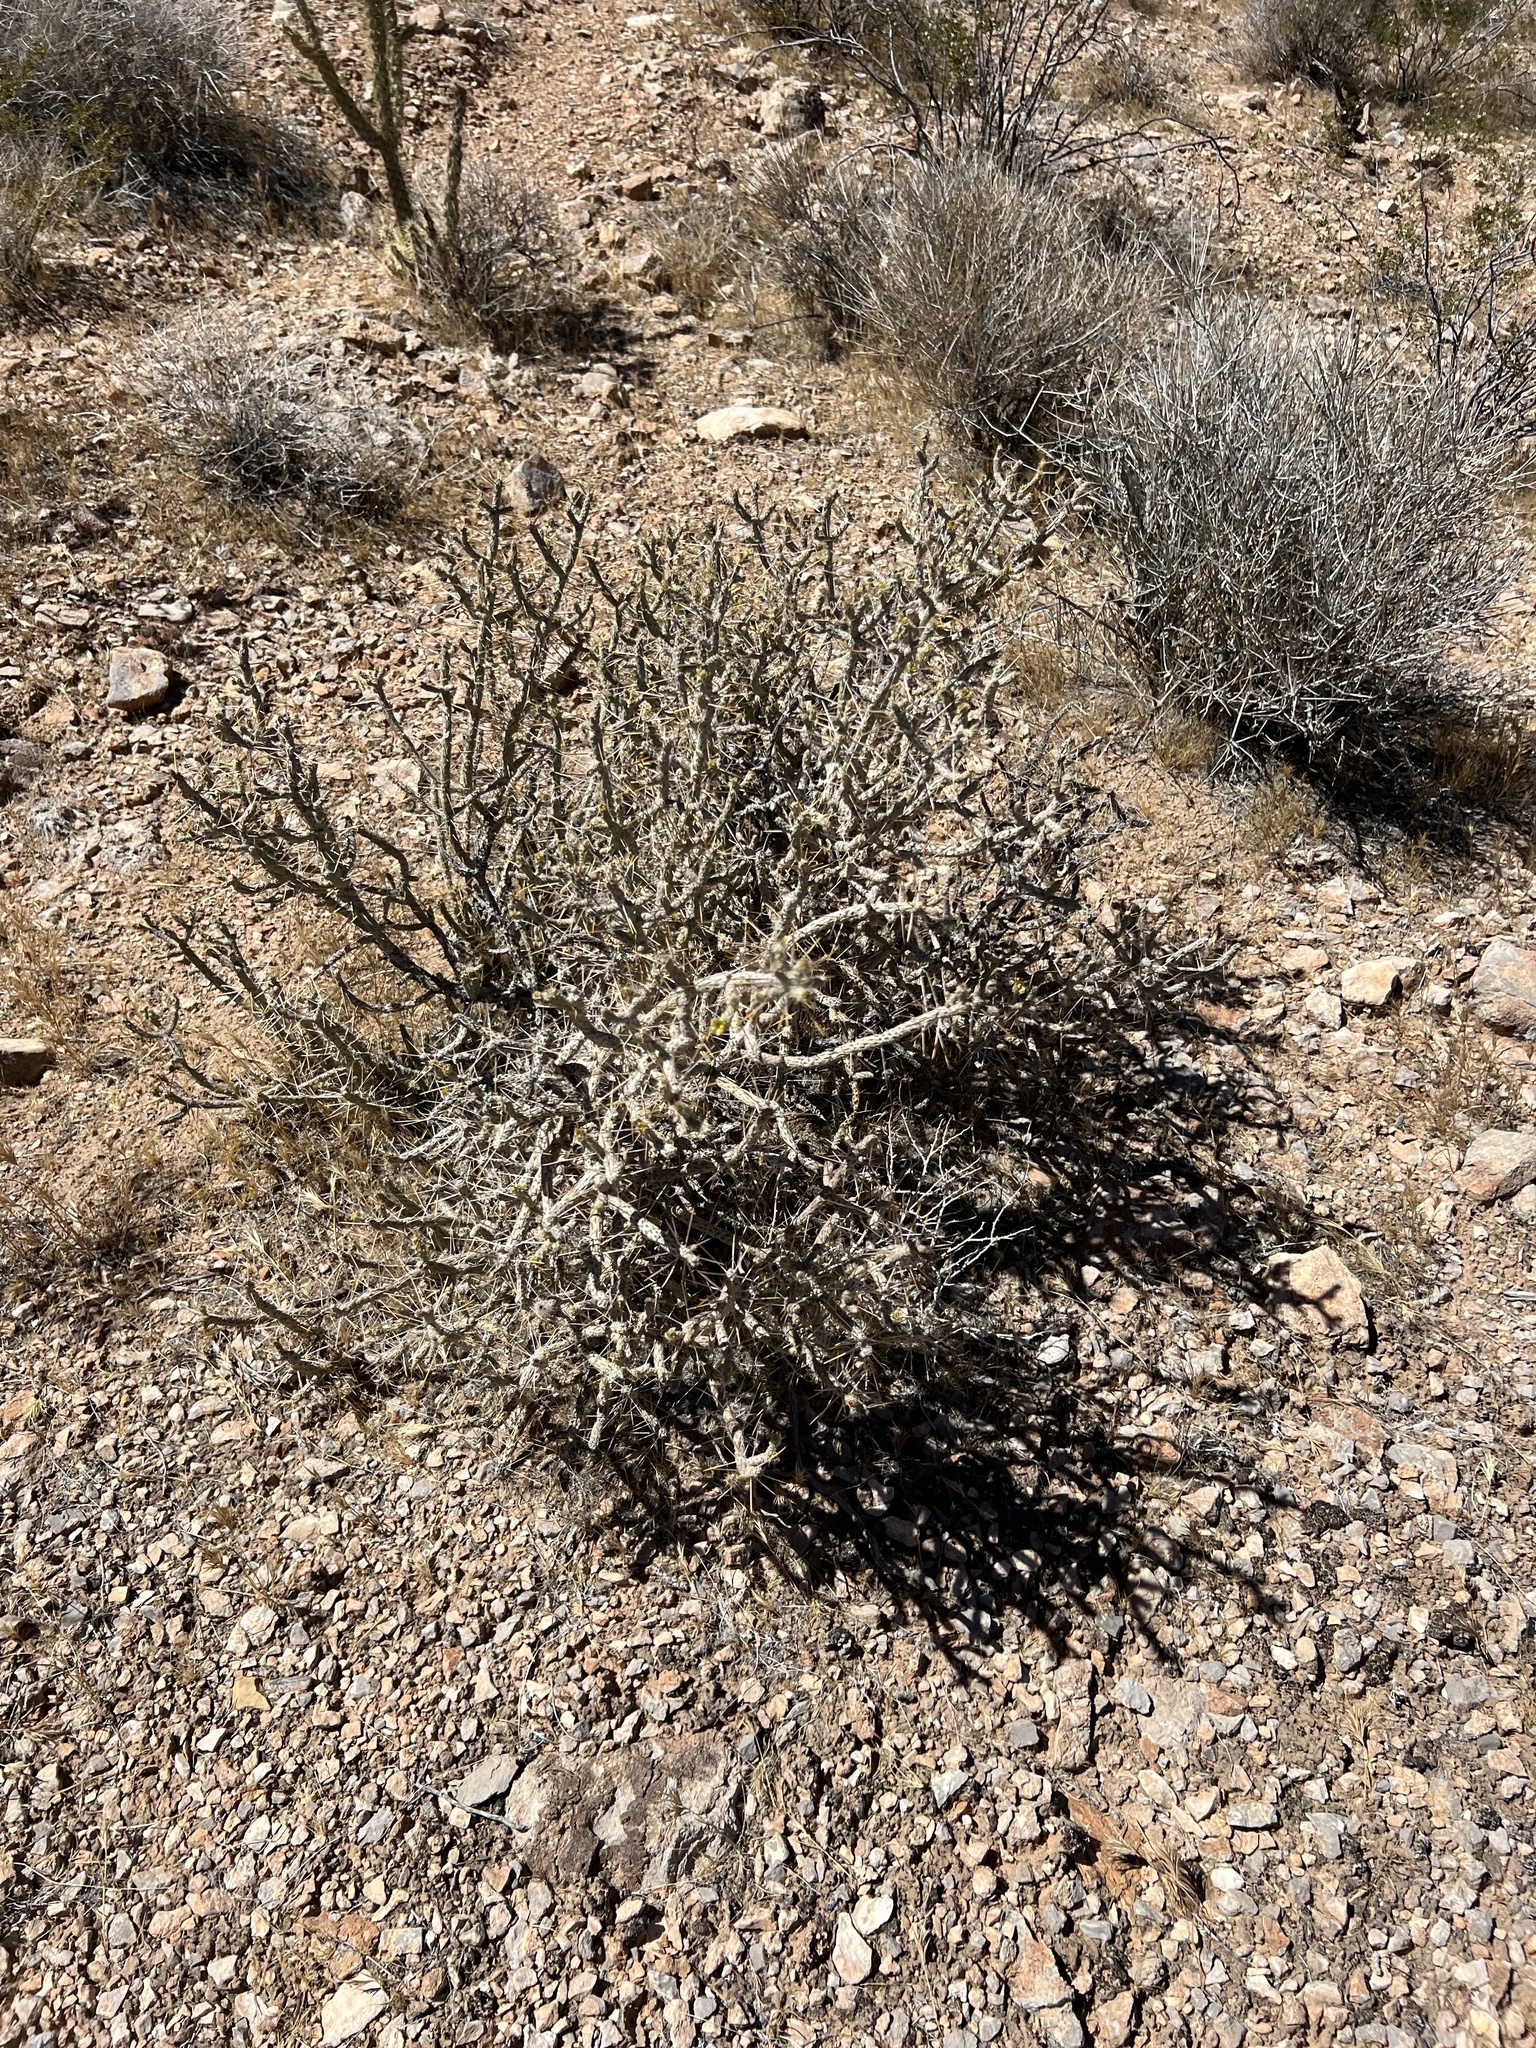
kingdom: Plantae
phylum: Tracheophyta
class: Magnoliopsida
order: Caryophyllales
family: Cactaceae
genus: Cylindropuntia
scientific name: Cylindropuntia ramosissima
